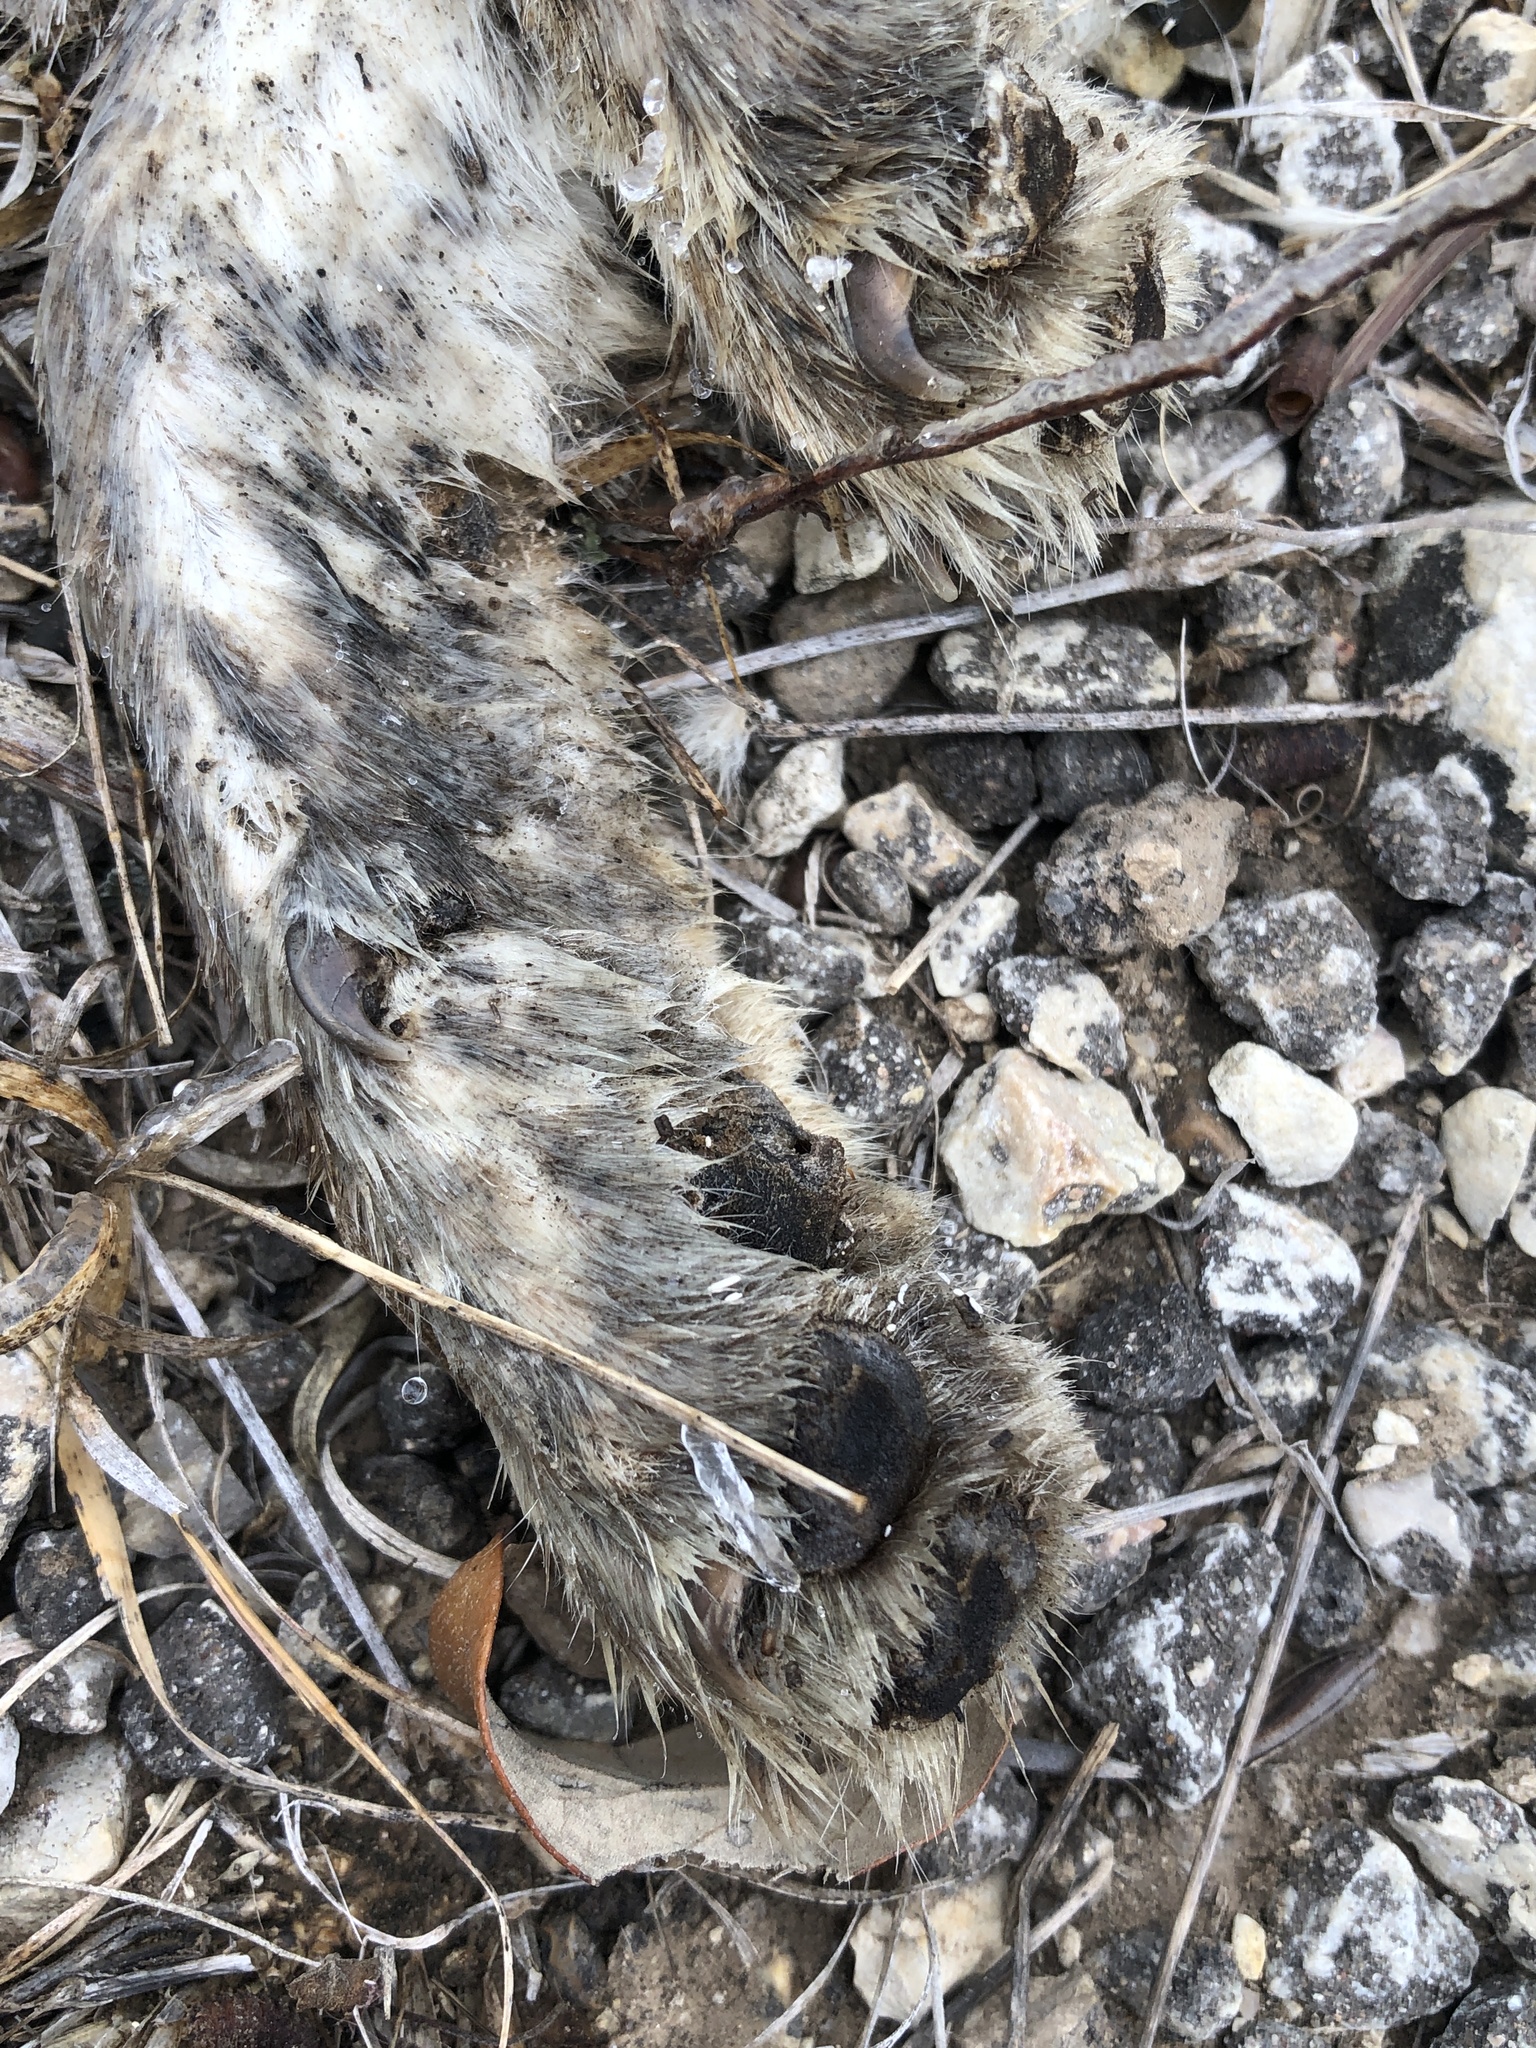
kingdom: Animalia
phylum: Chordata
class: Mammalia
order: Carnivora
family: Canidae
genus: Urocyon
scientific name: Urocyon cinereoargenteus
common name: Gray fox
